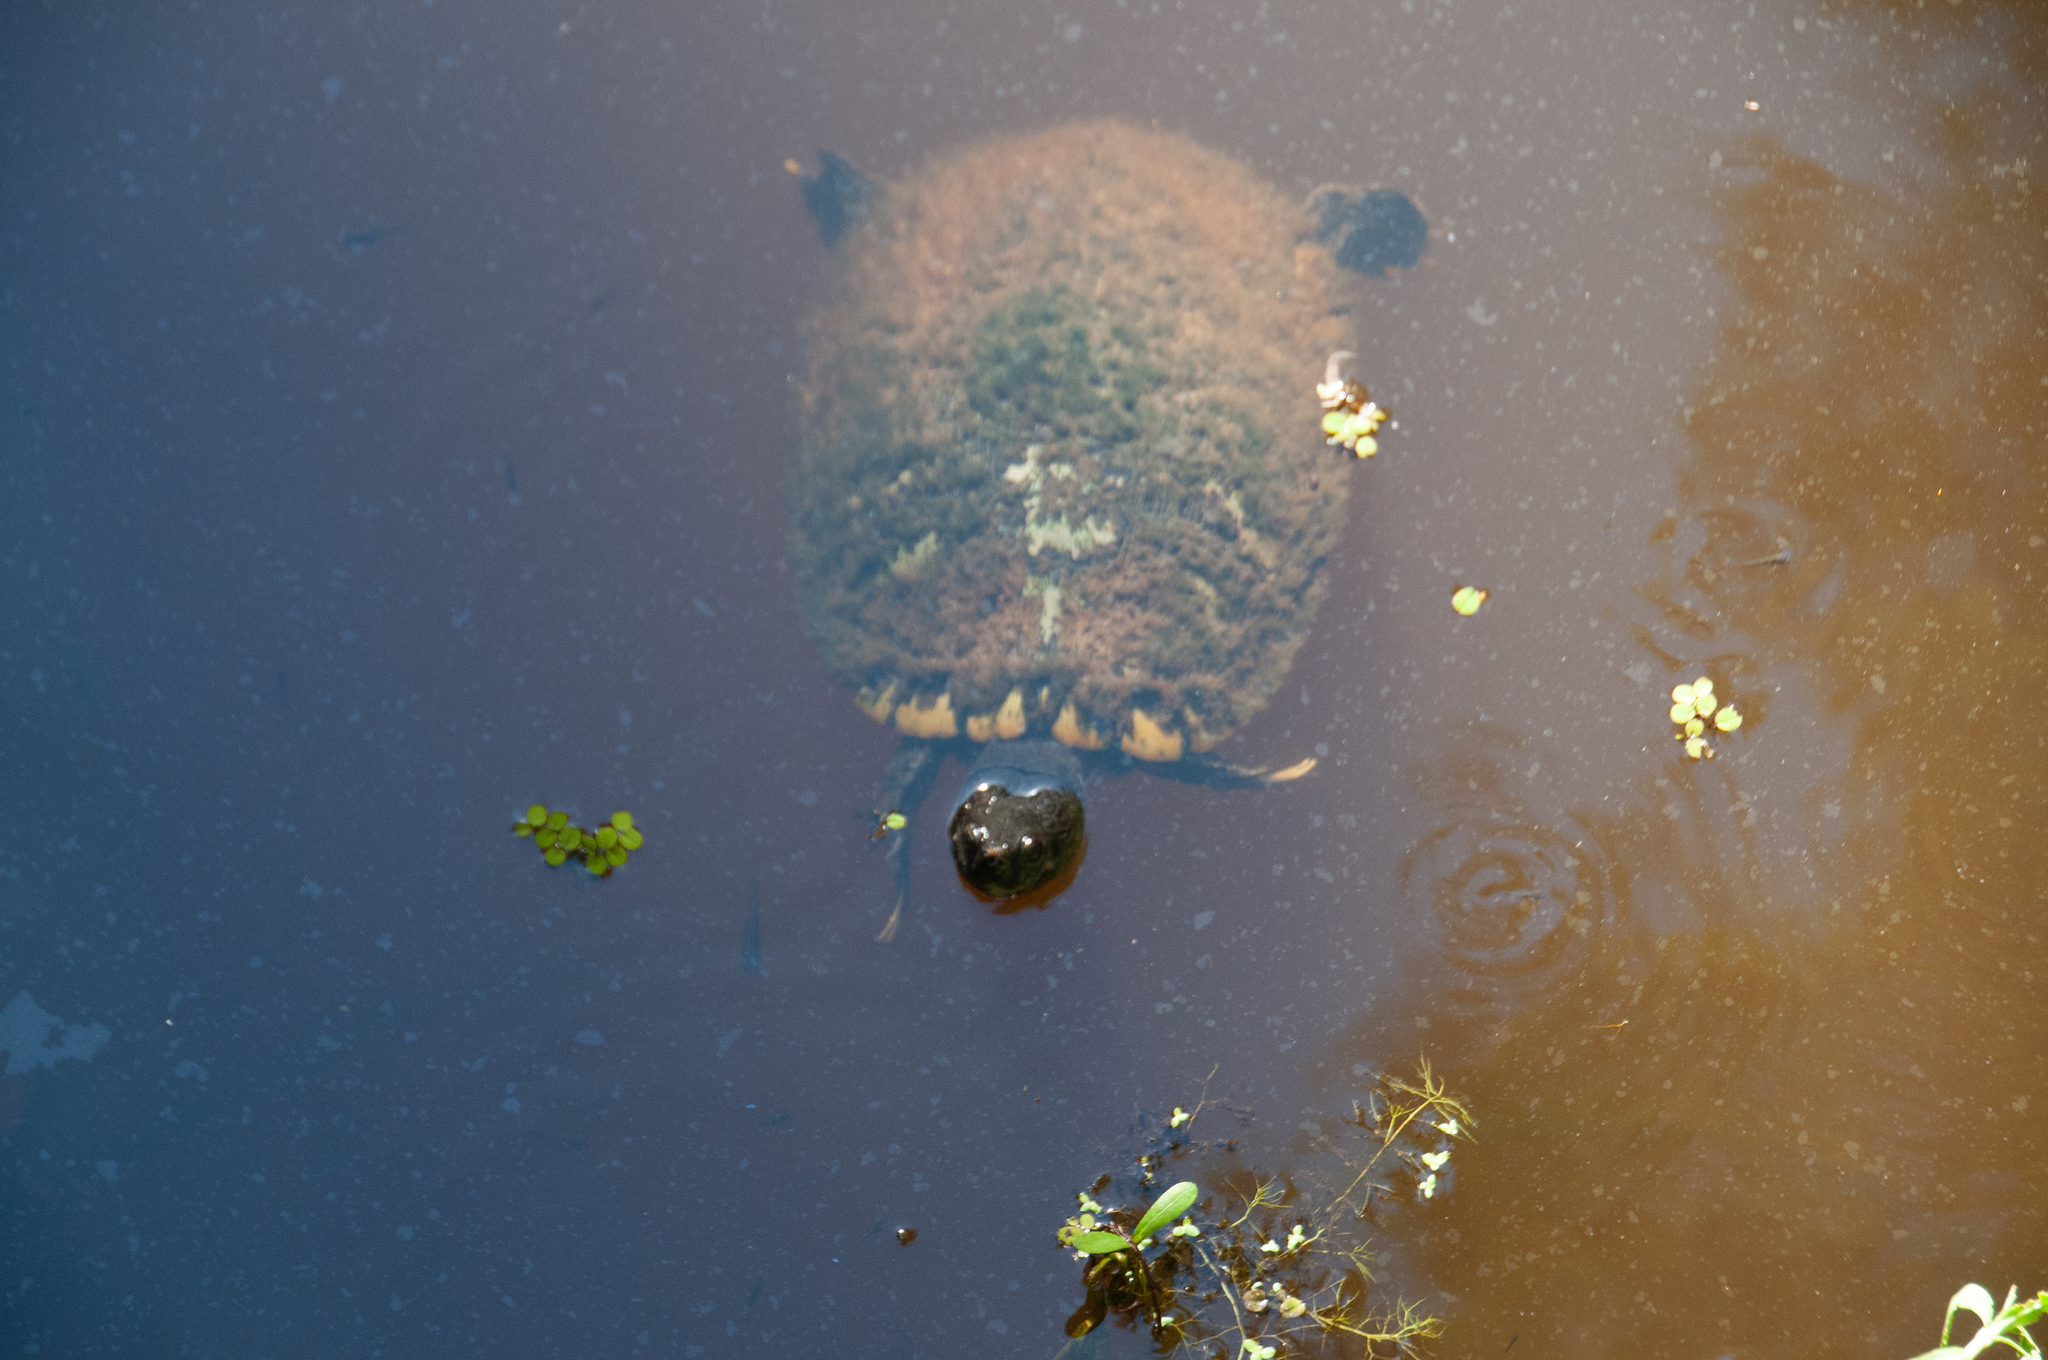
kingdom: Animalia
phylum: Chordata
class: Testudines
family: Emydidae
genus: Trachemys
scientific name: Trachemys scripta
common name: Slider
